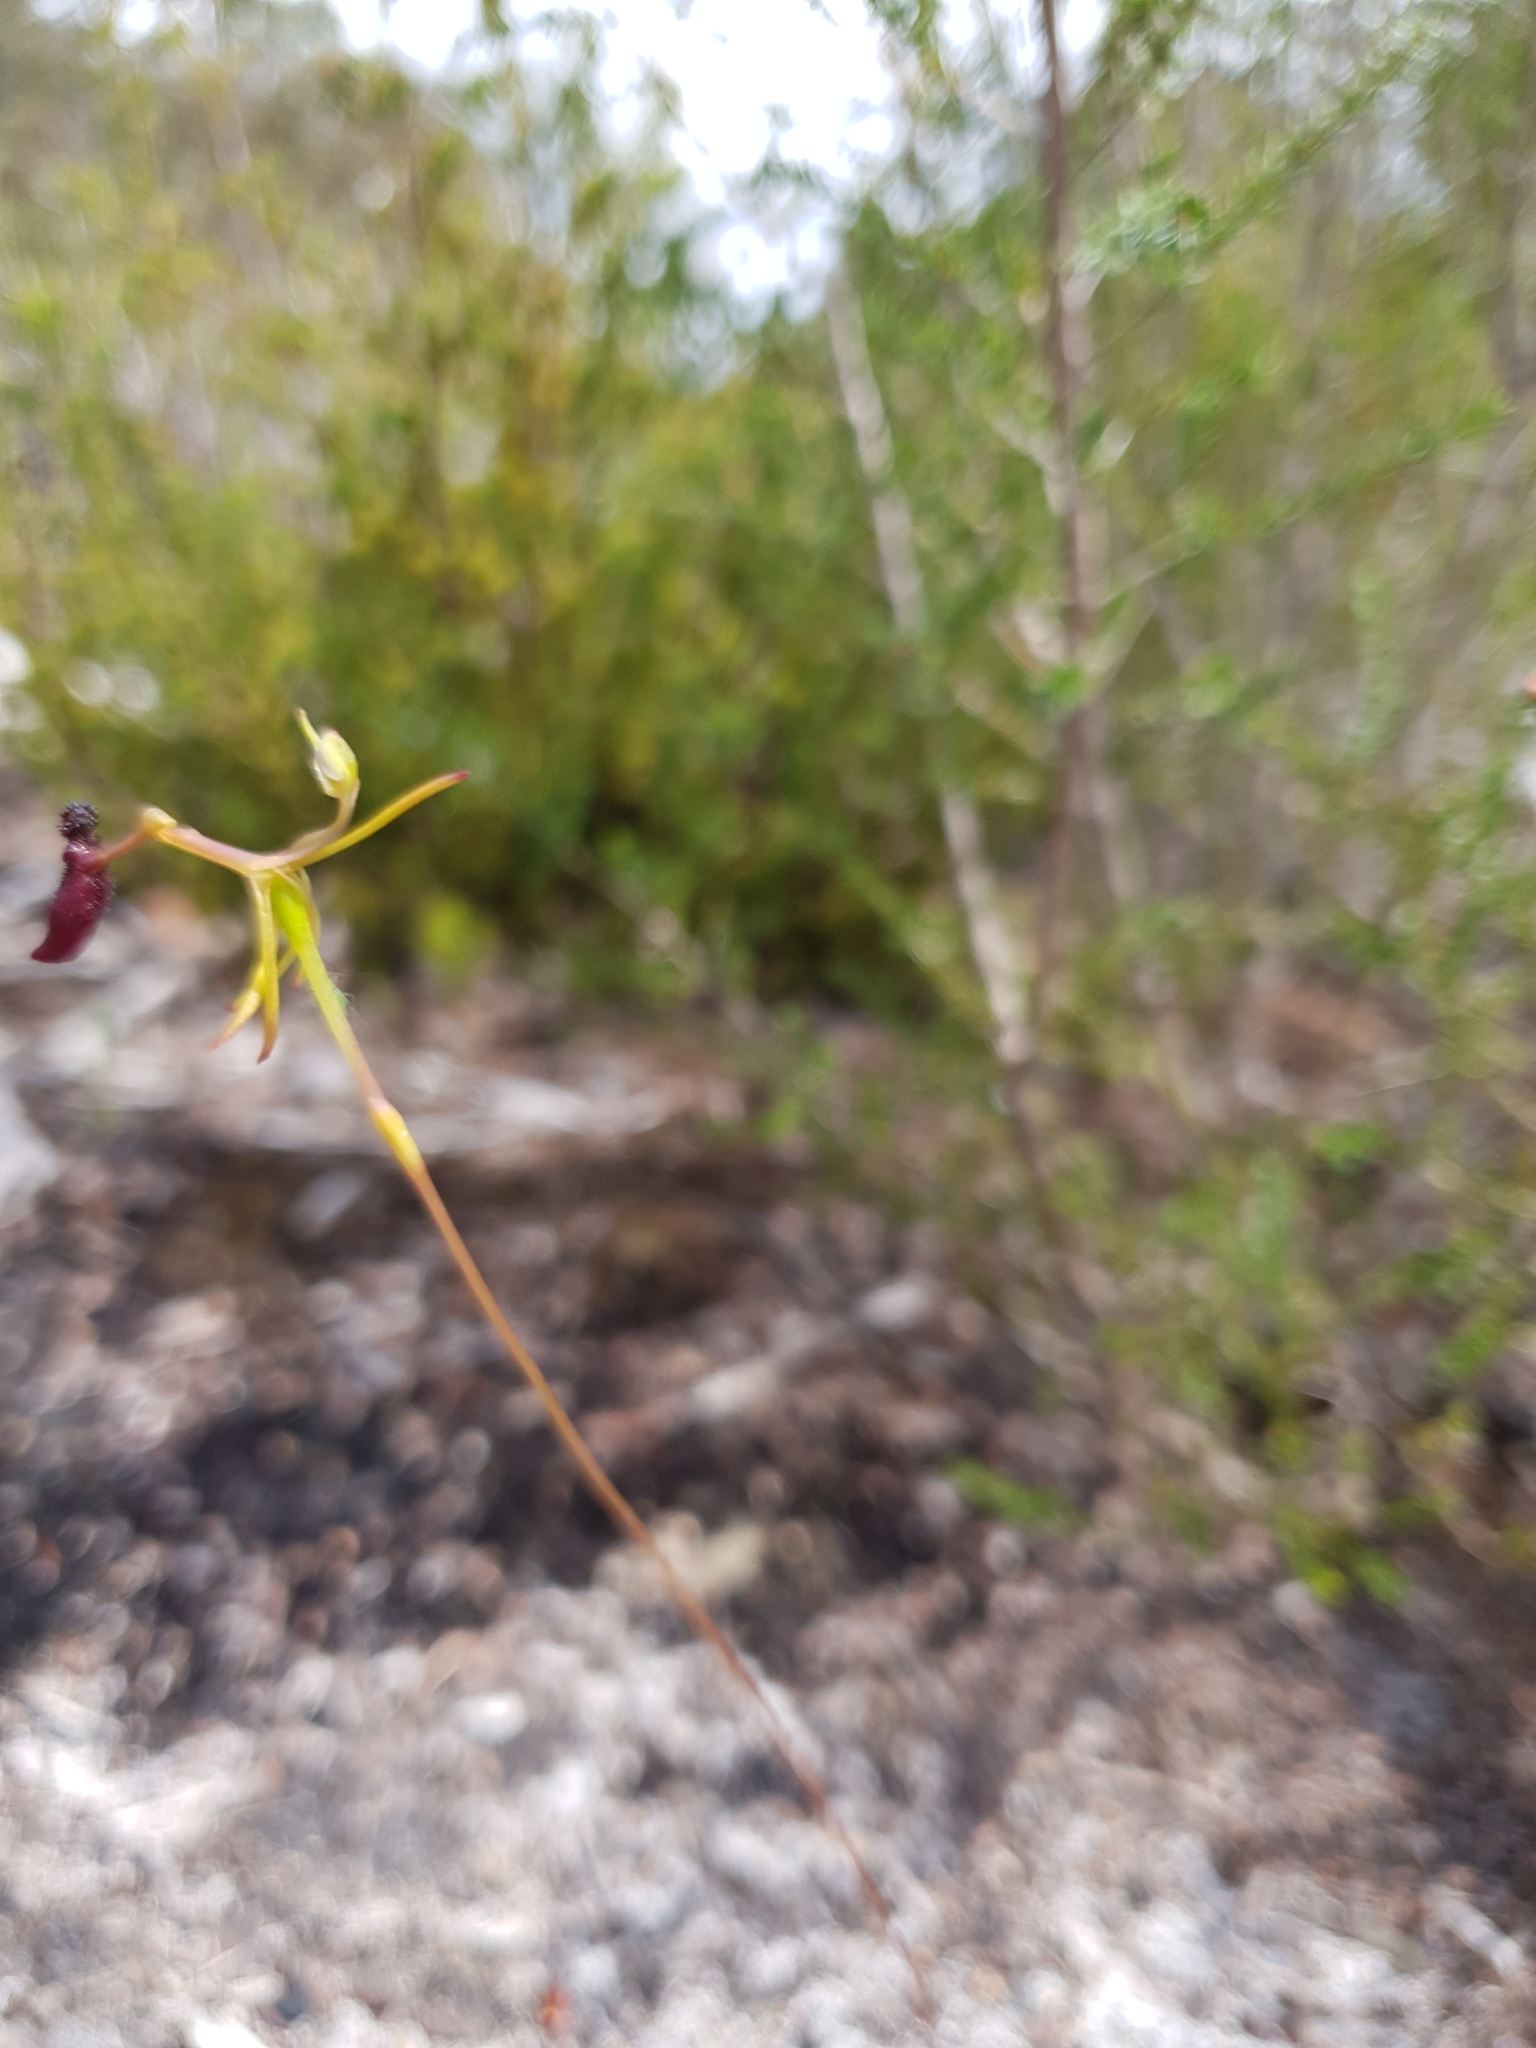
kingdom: Plantae
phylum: Tracheophyta
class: Liliopsida
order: Asparagales
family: Orchidaceae
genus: Drakaea
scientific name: Drakaea thynniphila
